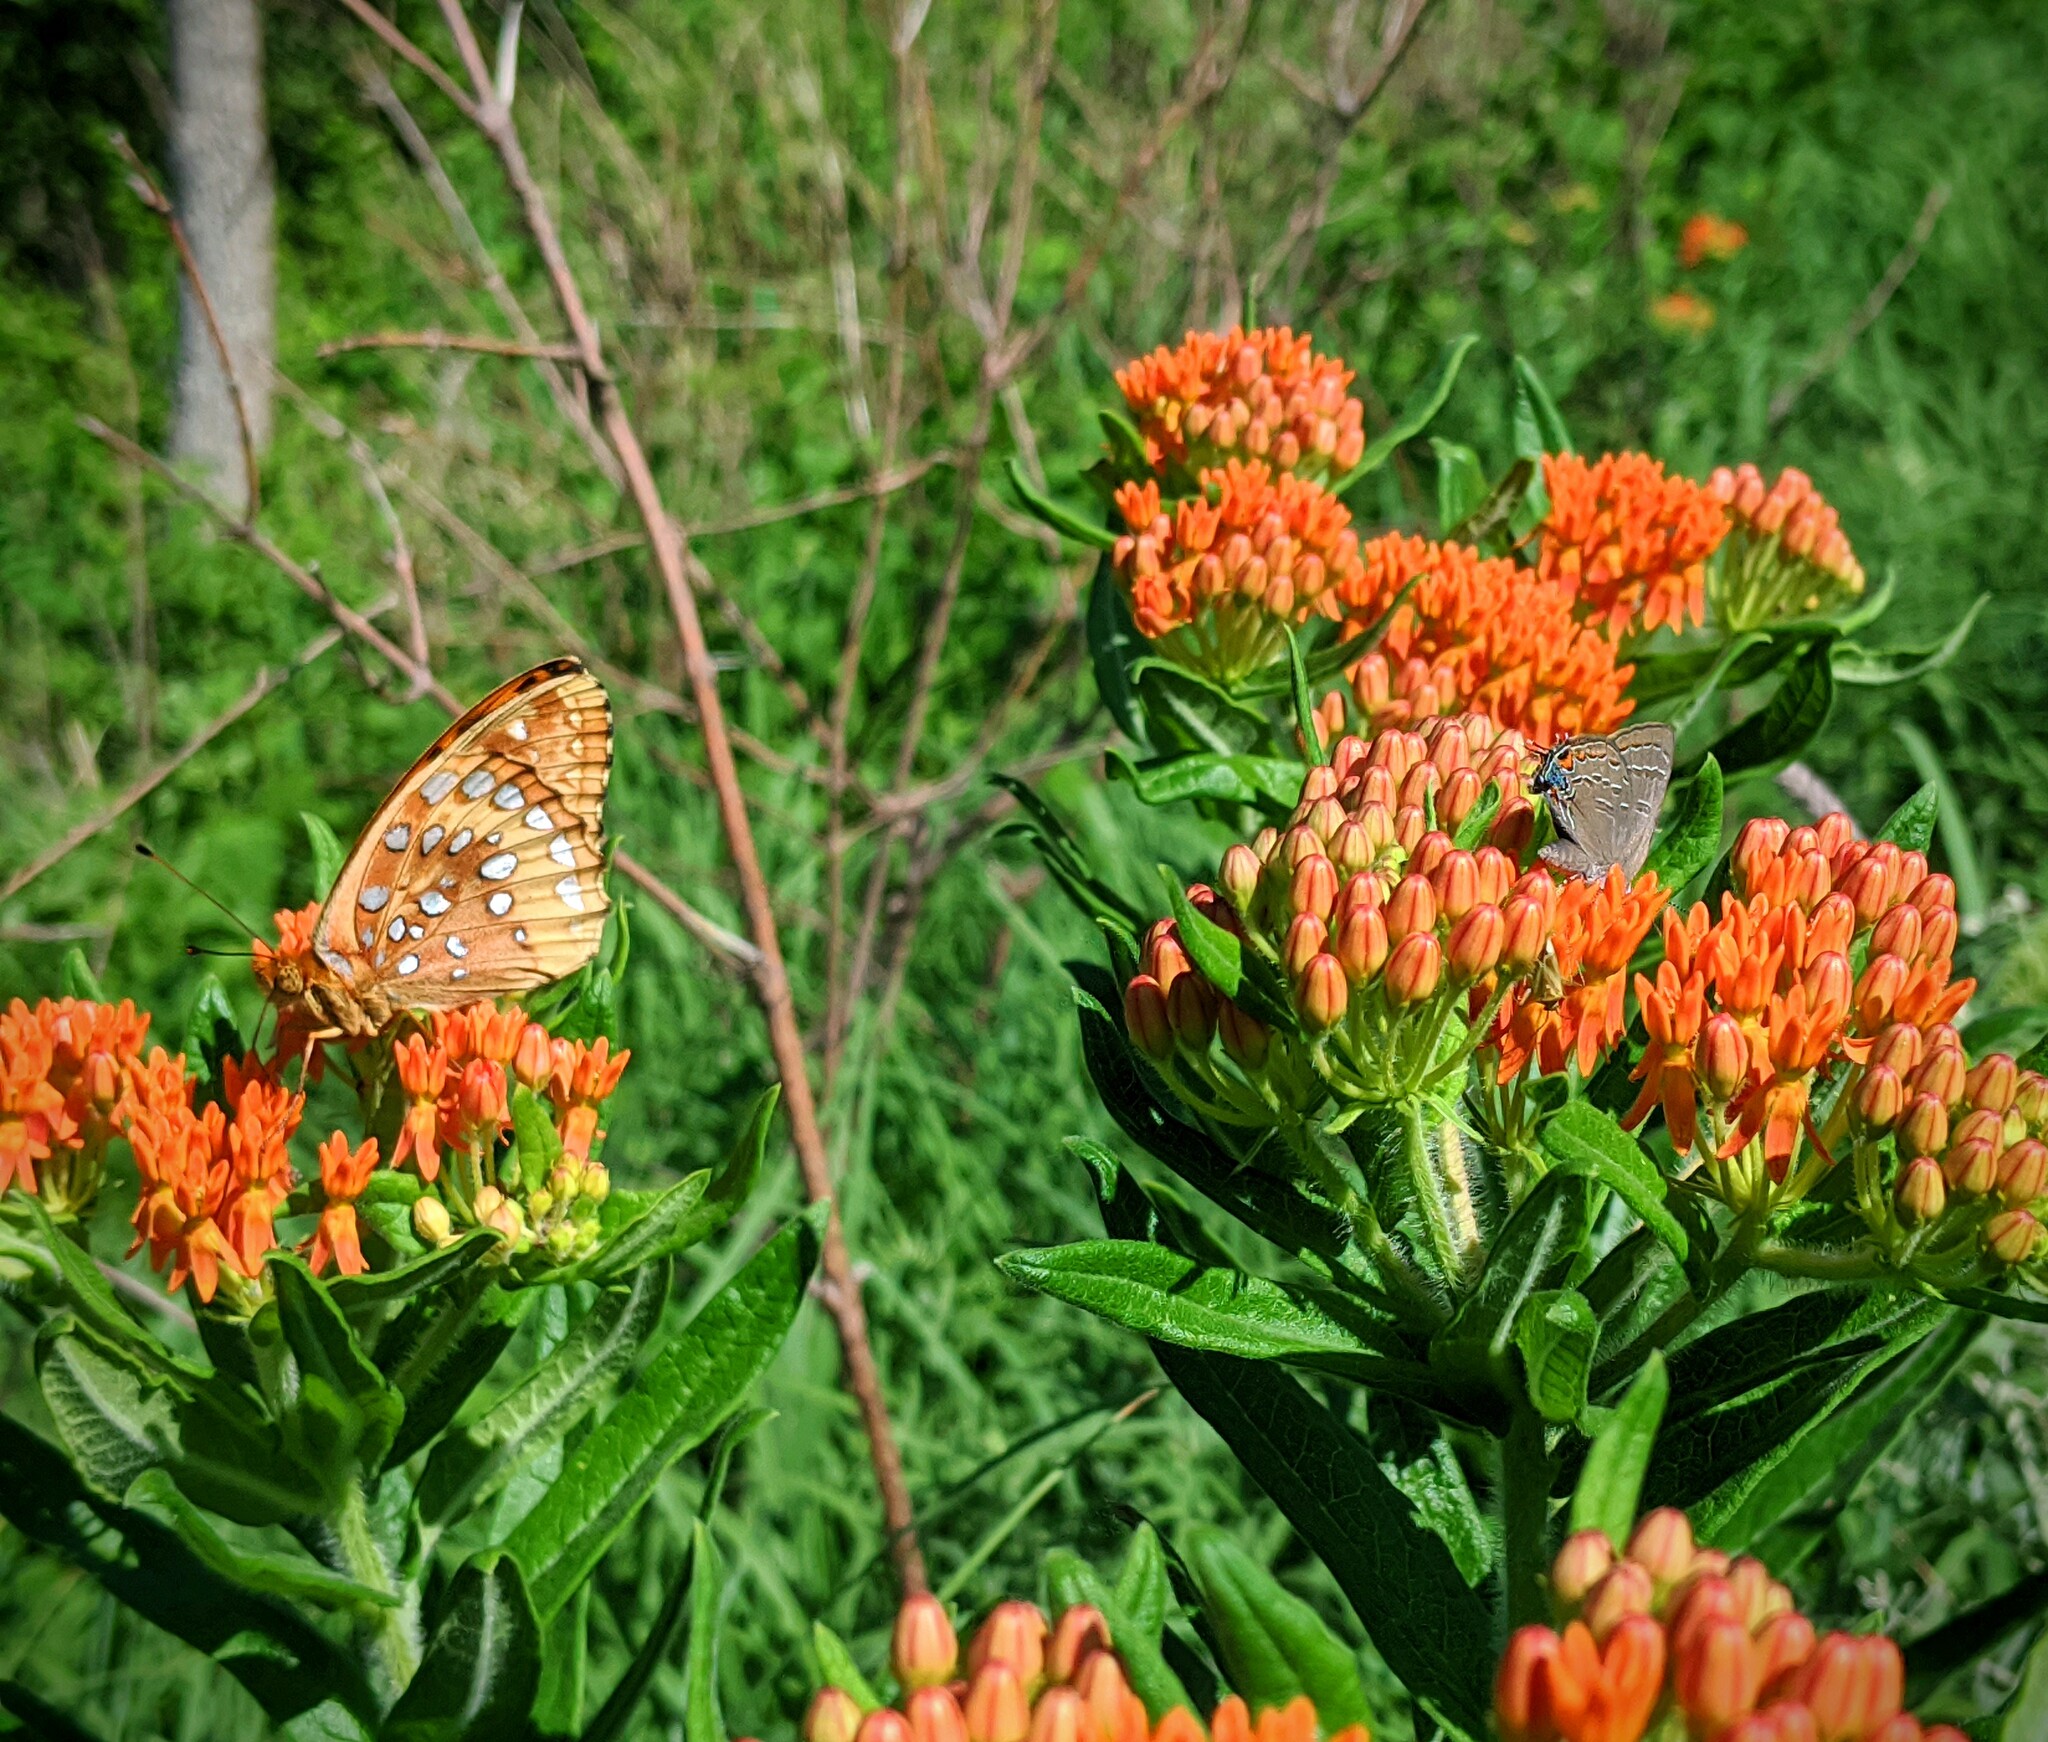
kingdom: Plantae
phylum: Tracheophyta
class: Magnoliopsida
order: Gentianales
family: Apocynaceae
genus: Asclepias
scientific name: Asclepias tuberosa
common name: Butterfly milkweed
